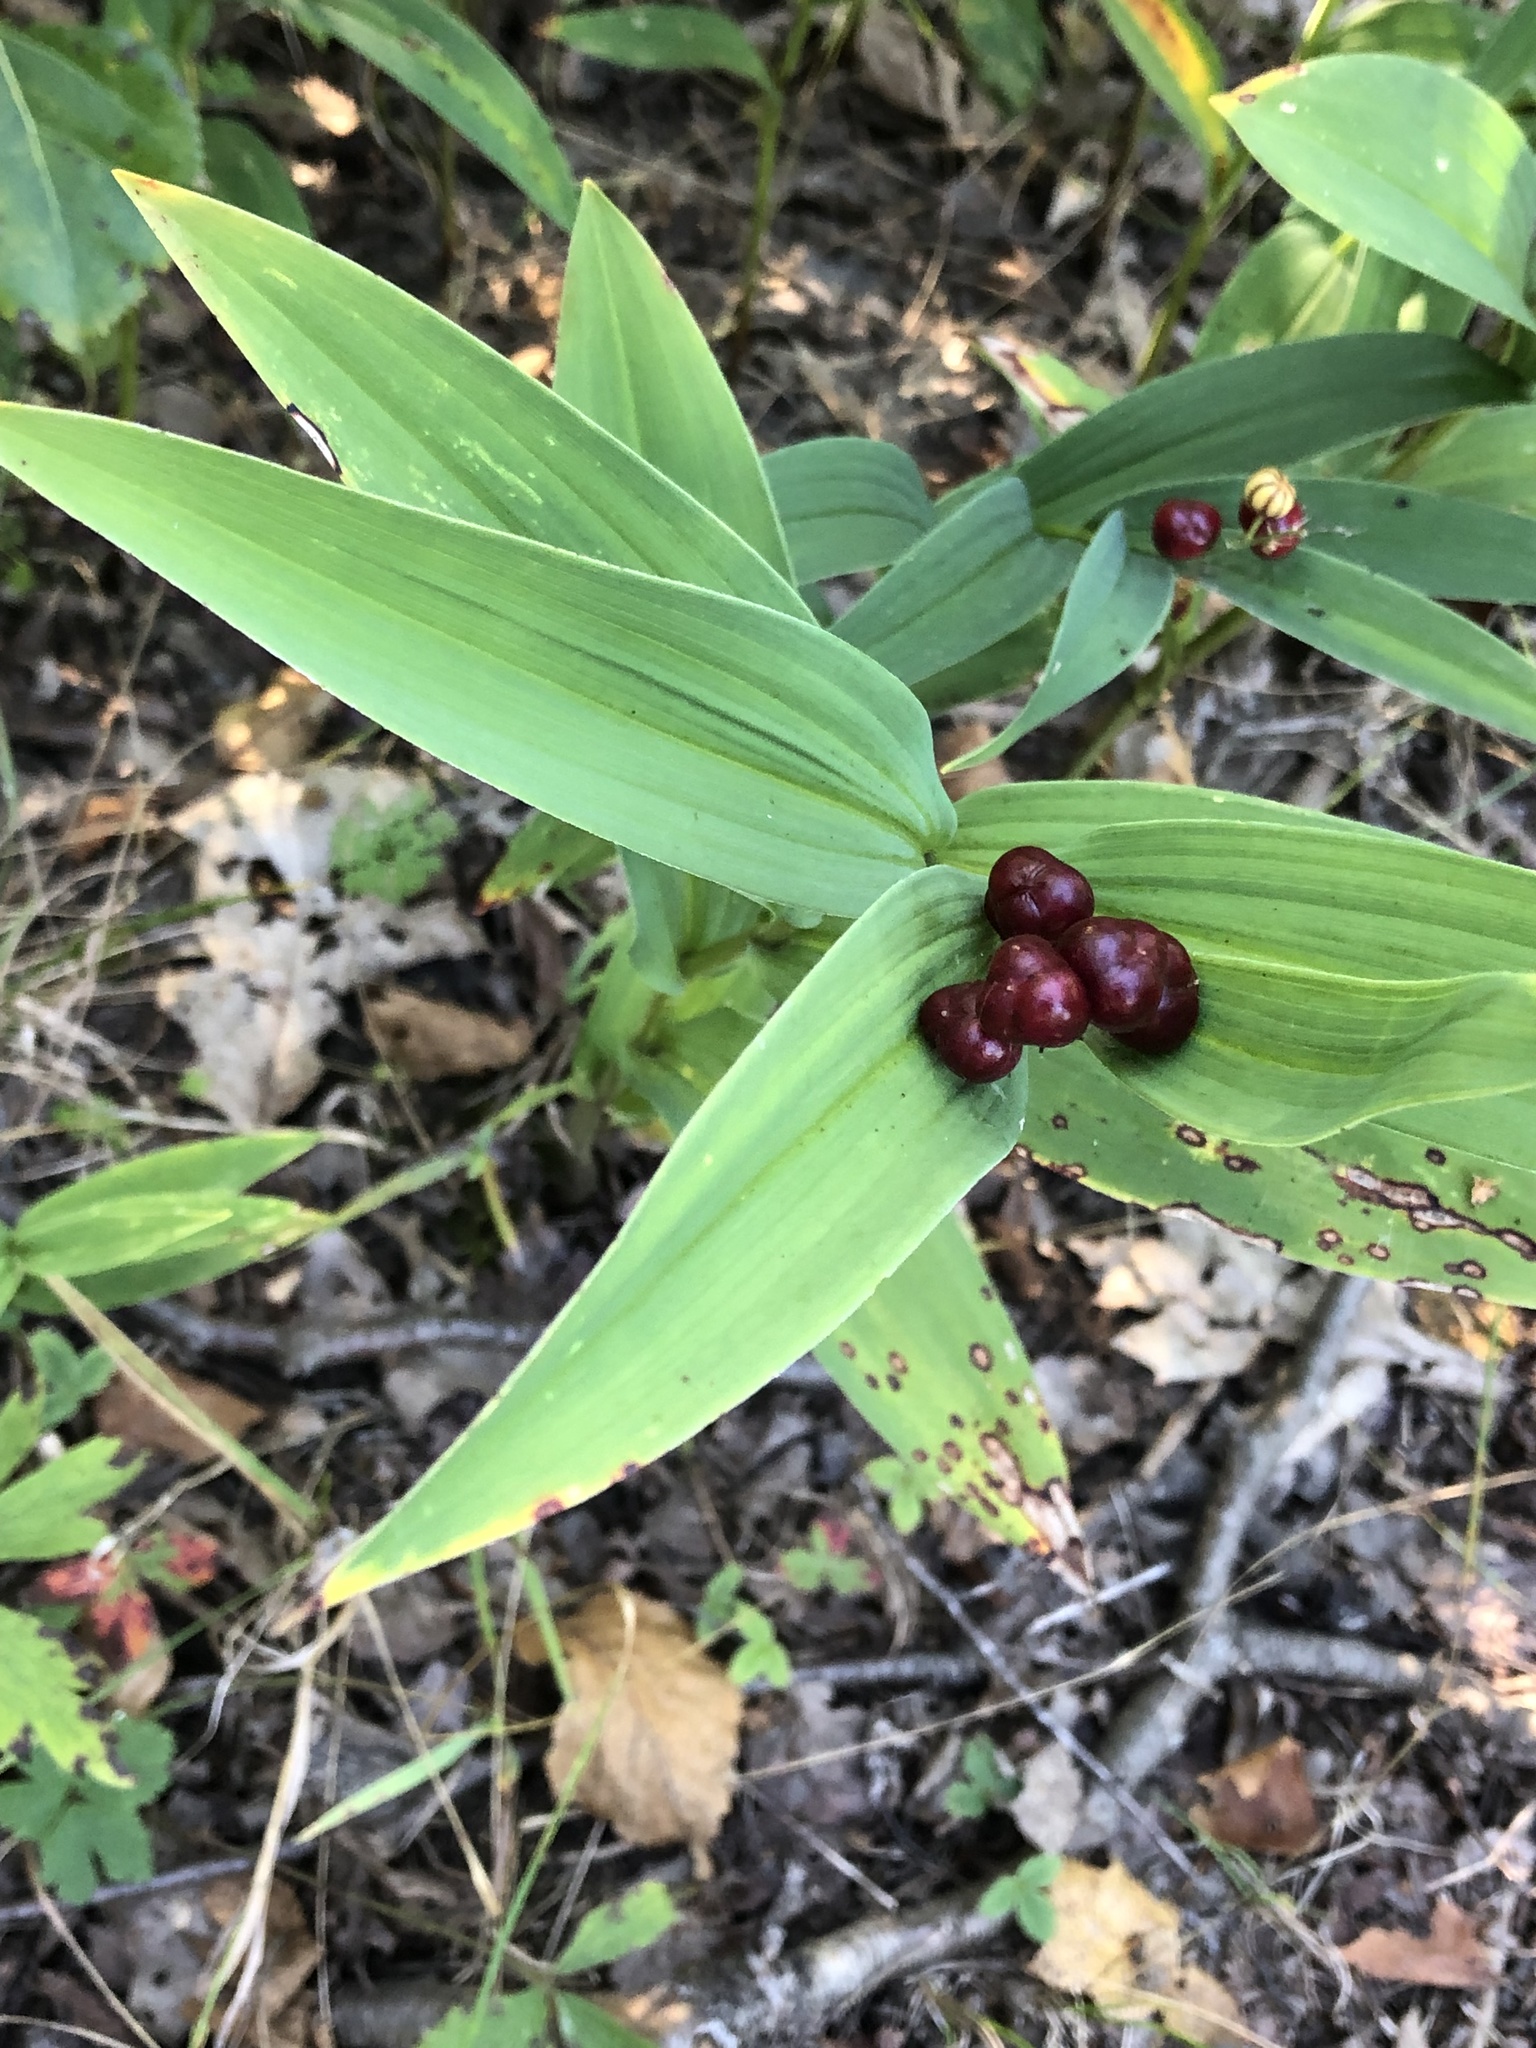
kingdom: Plantae
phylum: Tracheophyta
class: Liliopsida
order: Asparagales
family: Asparagaceae
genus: Maianthemum
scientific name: Maianthemum stellatum
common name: Little false solomon's seal
